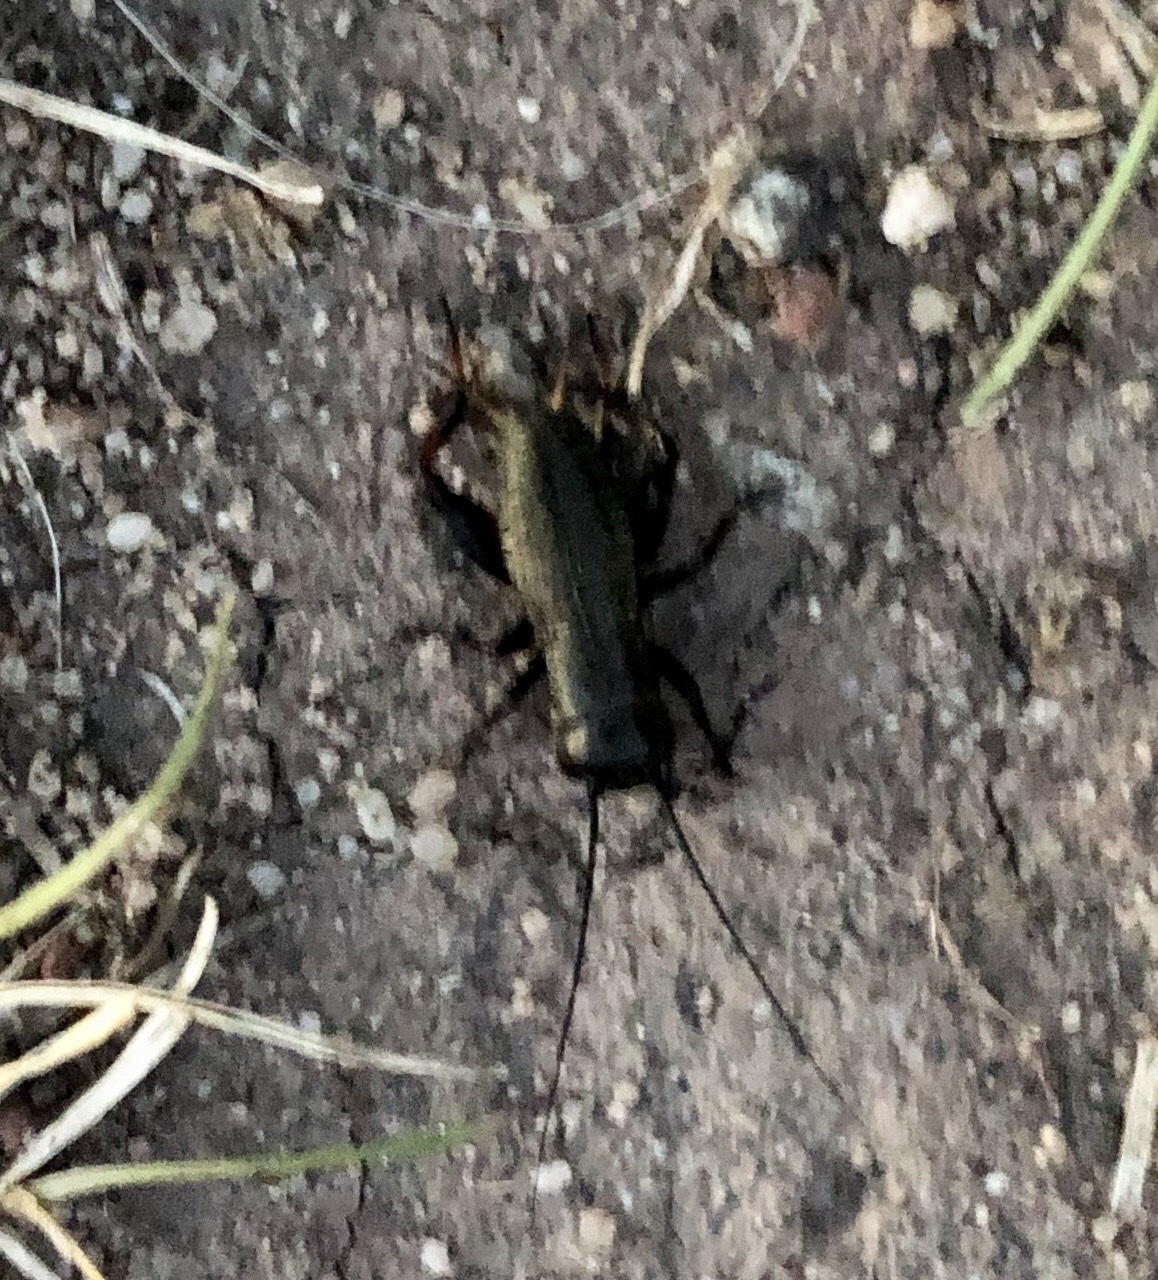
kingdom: Animalia
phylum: Arthropoda
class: Insecta
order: Orthoptera
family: Gryllidae
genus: Gryllus
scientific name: Gryllus campestris
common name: Field cricket
